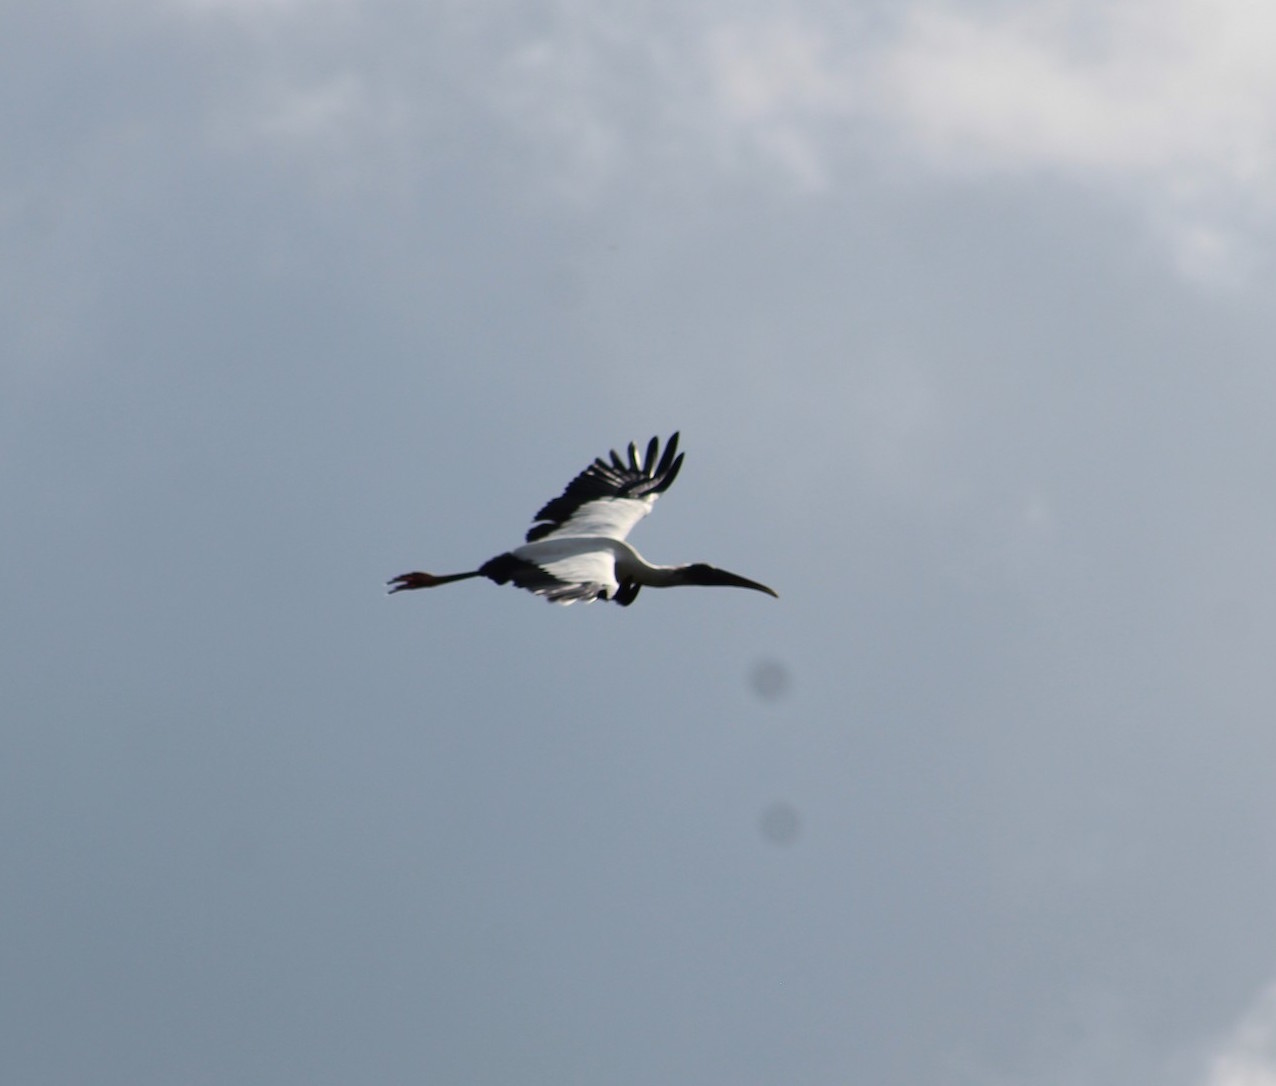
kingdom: Animalia
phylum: Chordata
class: Aves
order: Ciconiiformes
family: Ciconiidae
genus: Mycteria
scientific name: Mycteria americana
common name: Wood stork
